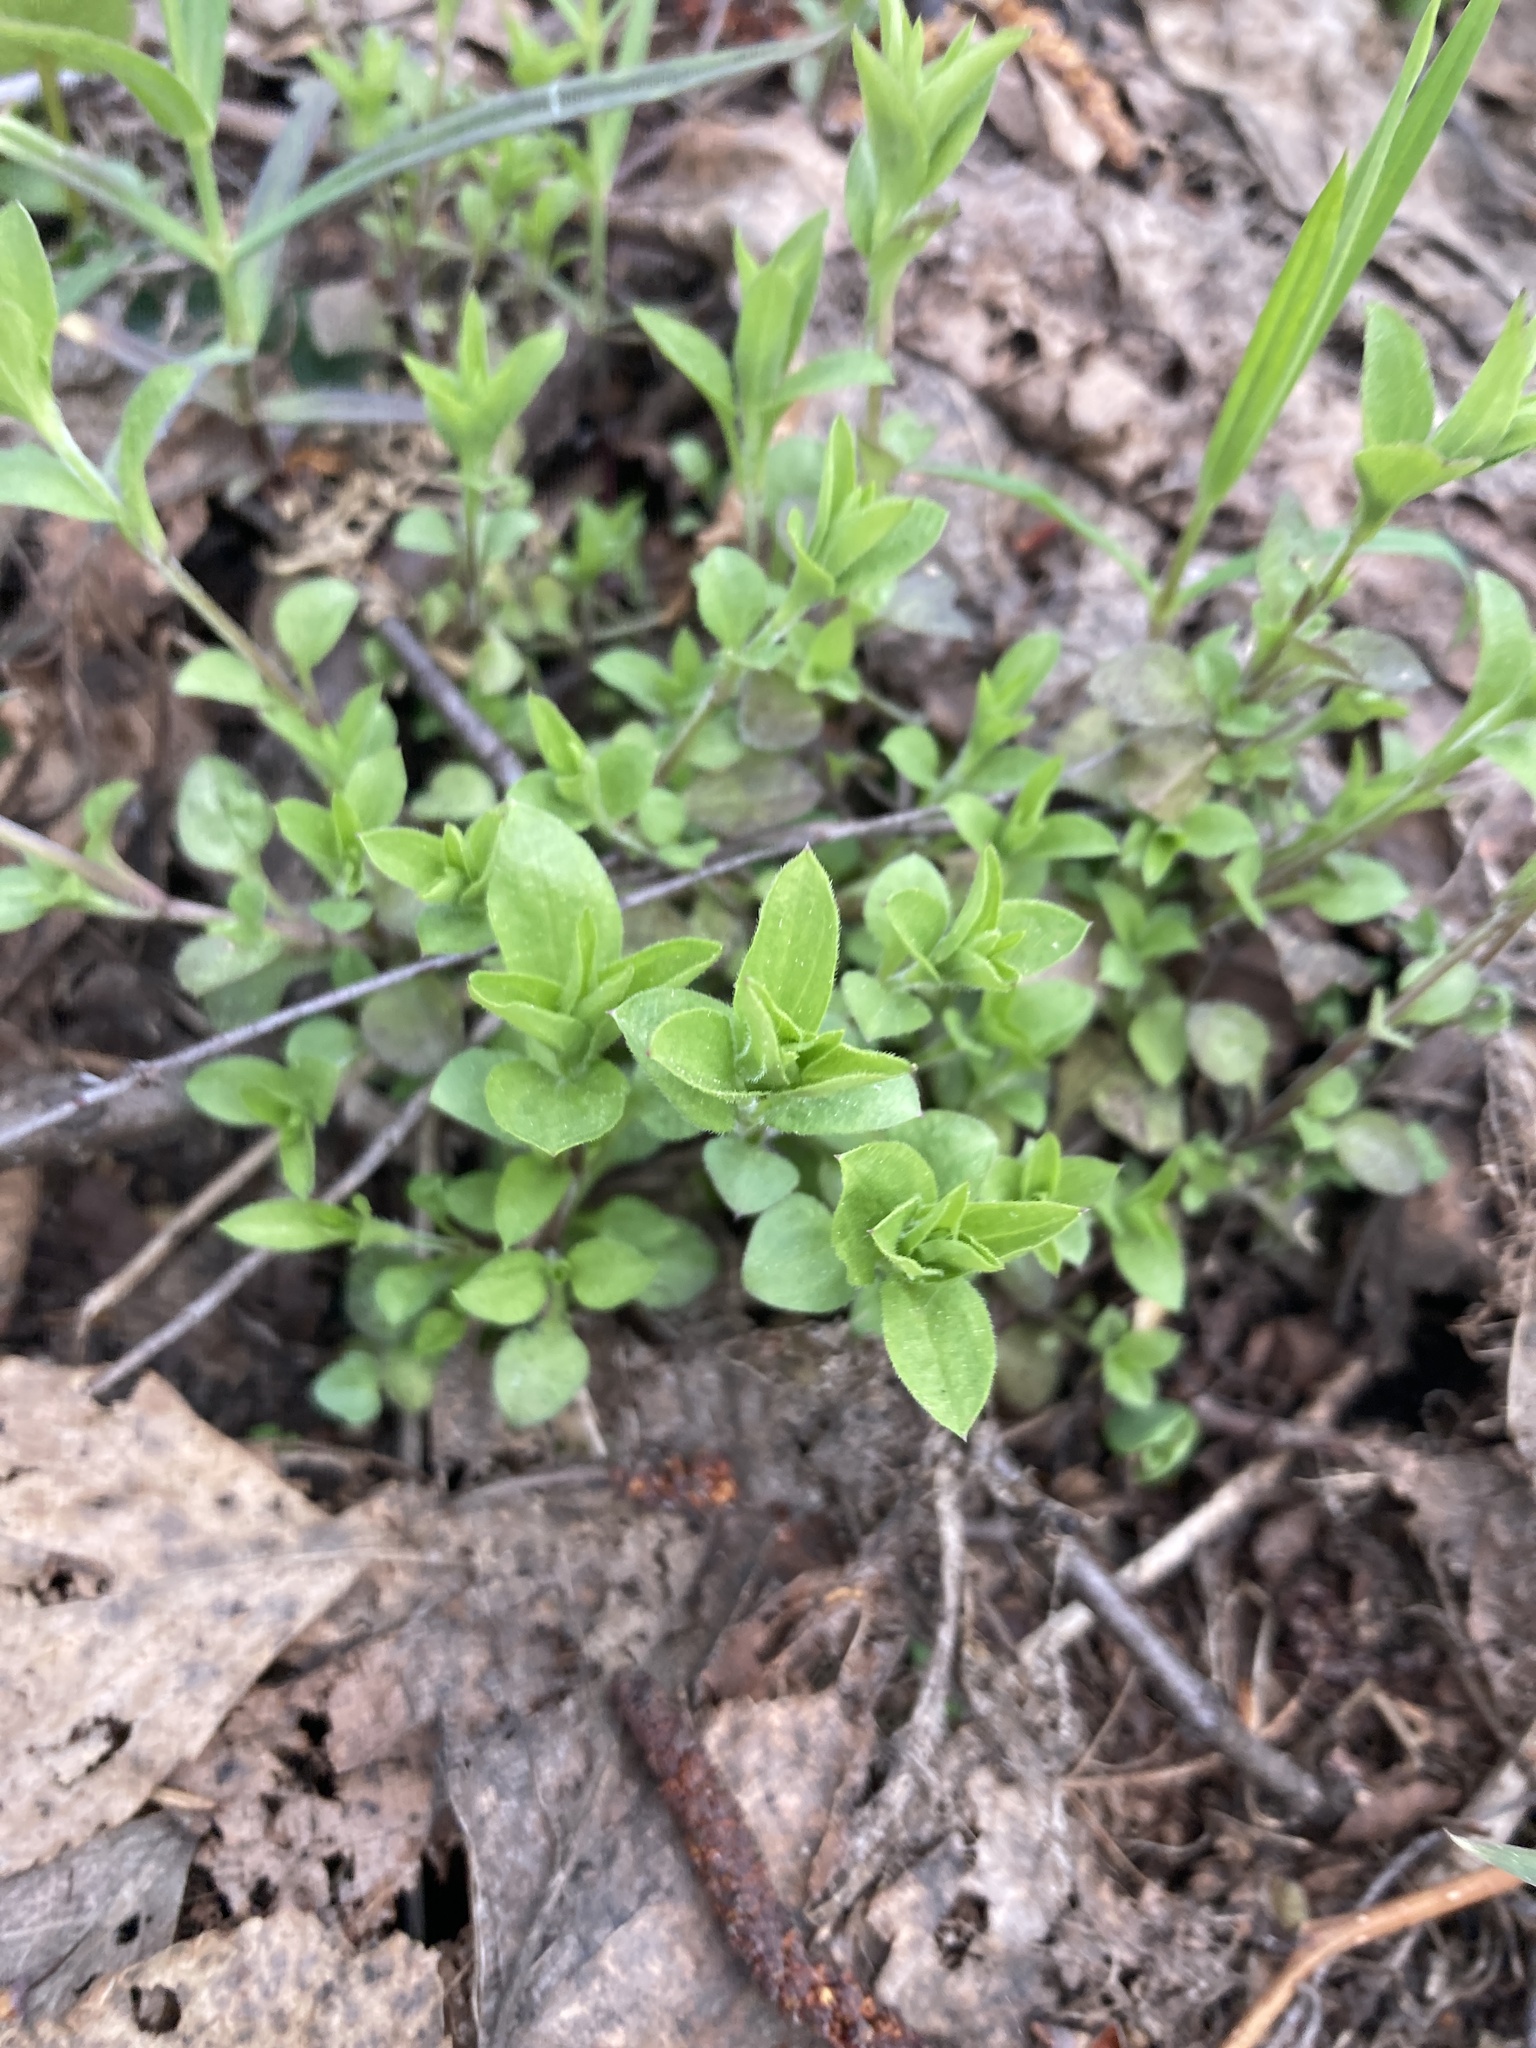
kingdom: Plantae
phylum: Tracheophyta
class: Magnoliopsida
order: Caryophyllales
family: Caryophyllaceae
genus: Moehringia
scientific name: Moehringia trinervia
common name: Three-nerved sandwort
